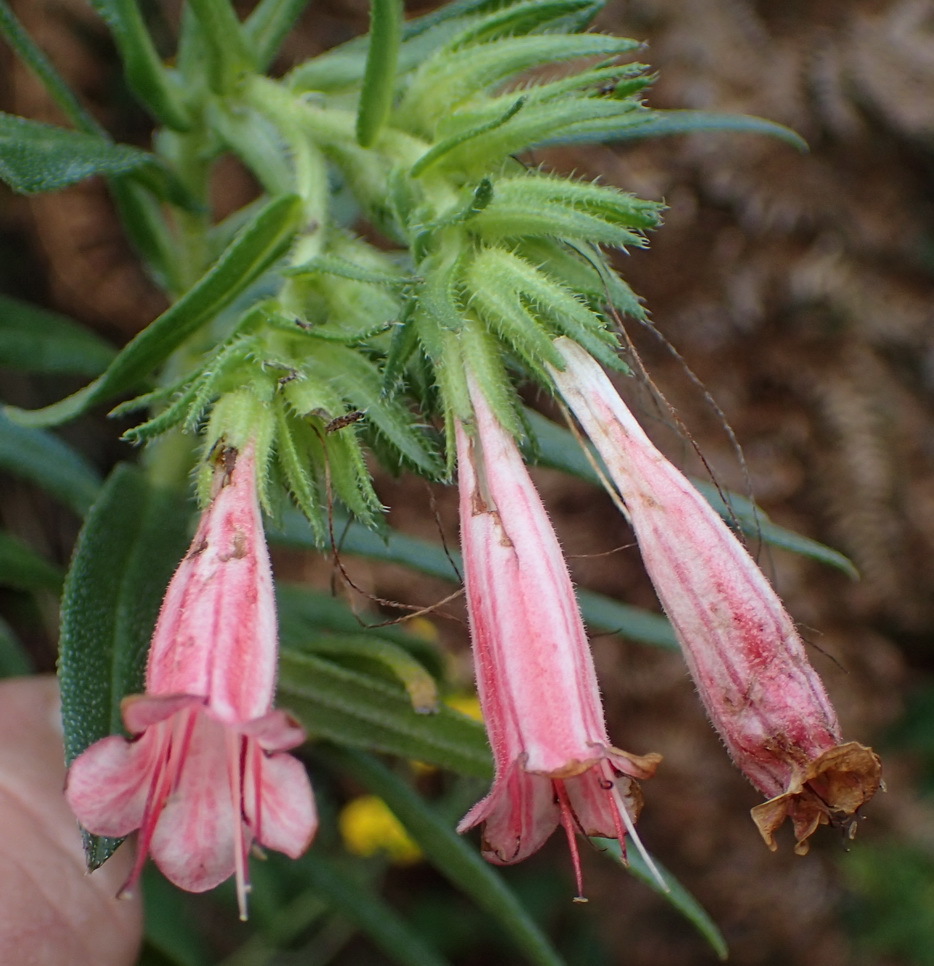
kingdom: Plantae
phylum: Tracheophyta
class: Magnoliopsida
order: Boraginales
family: Boraginaceae
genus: Lobostemon
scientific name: Lobostemon belliformis
